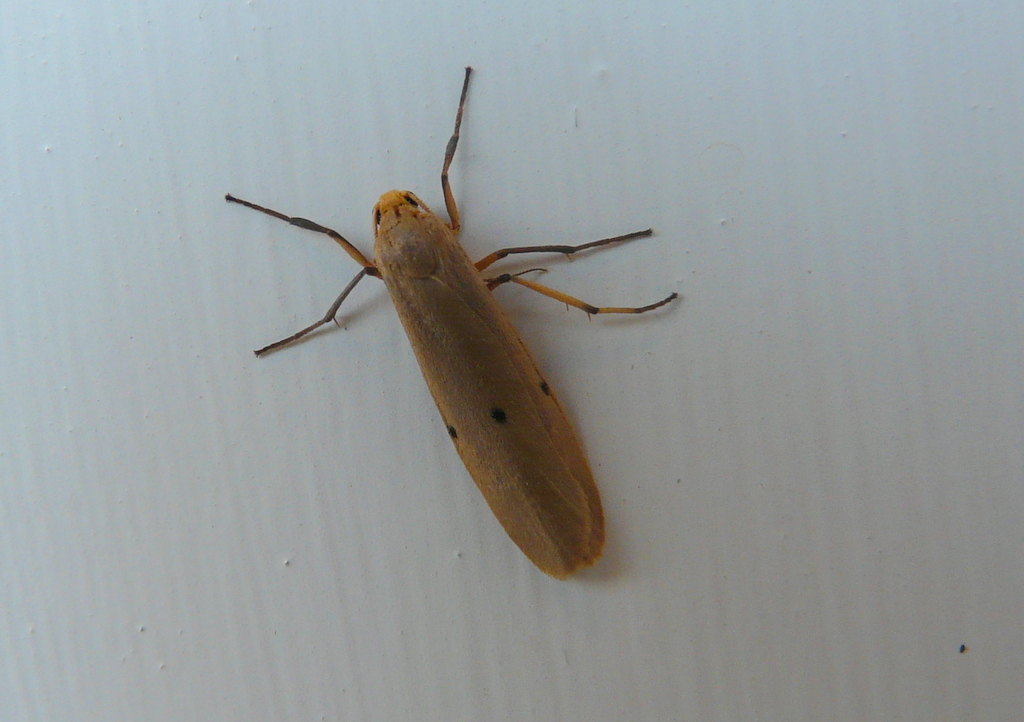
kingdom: Animalia
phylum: Arthropoda
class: Insecta
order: Lepidoptera
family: Erebidae
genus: Zobida
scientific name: Zobida similipuncta
